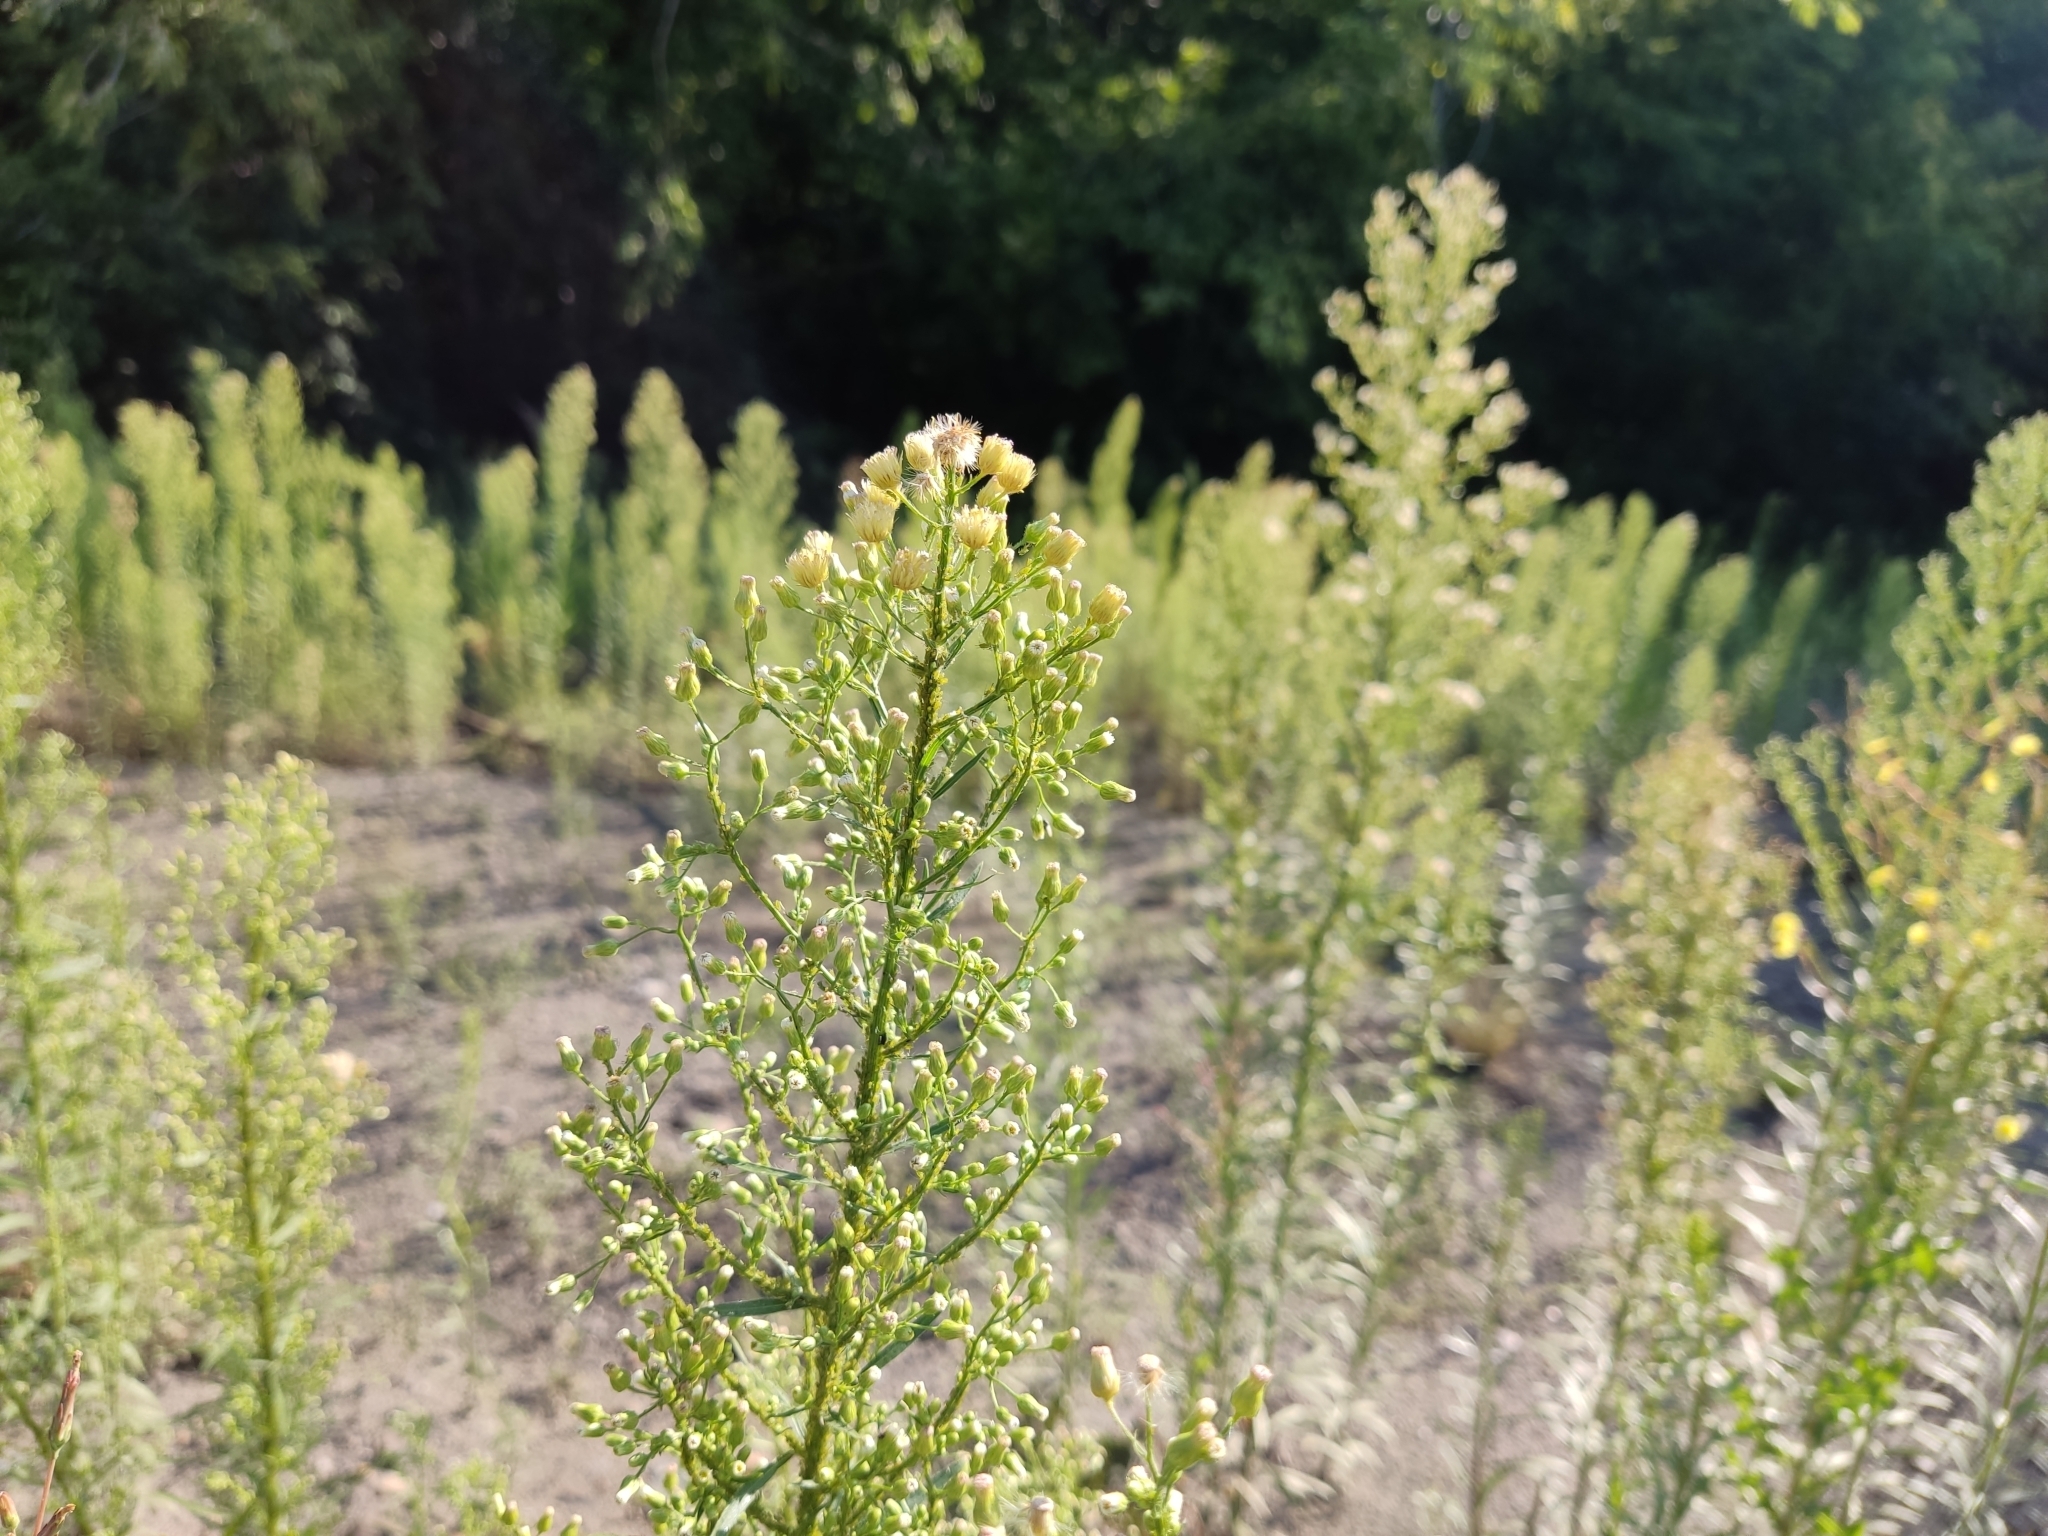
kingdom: Plantae
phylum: Tracheophyta
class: Magnoliopsida
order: Asterales
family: Asteraceae
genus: Erigeron
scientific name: Erigeron canadensis
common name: Canadian fleabane
